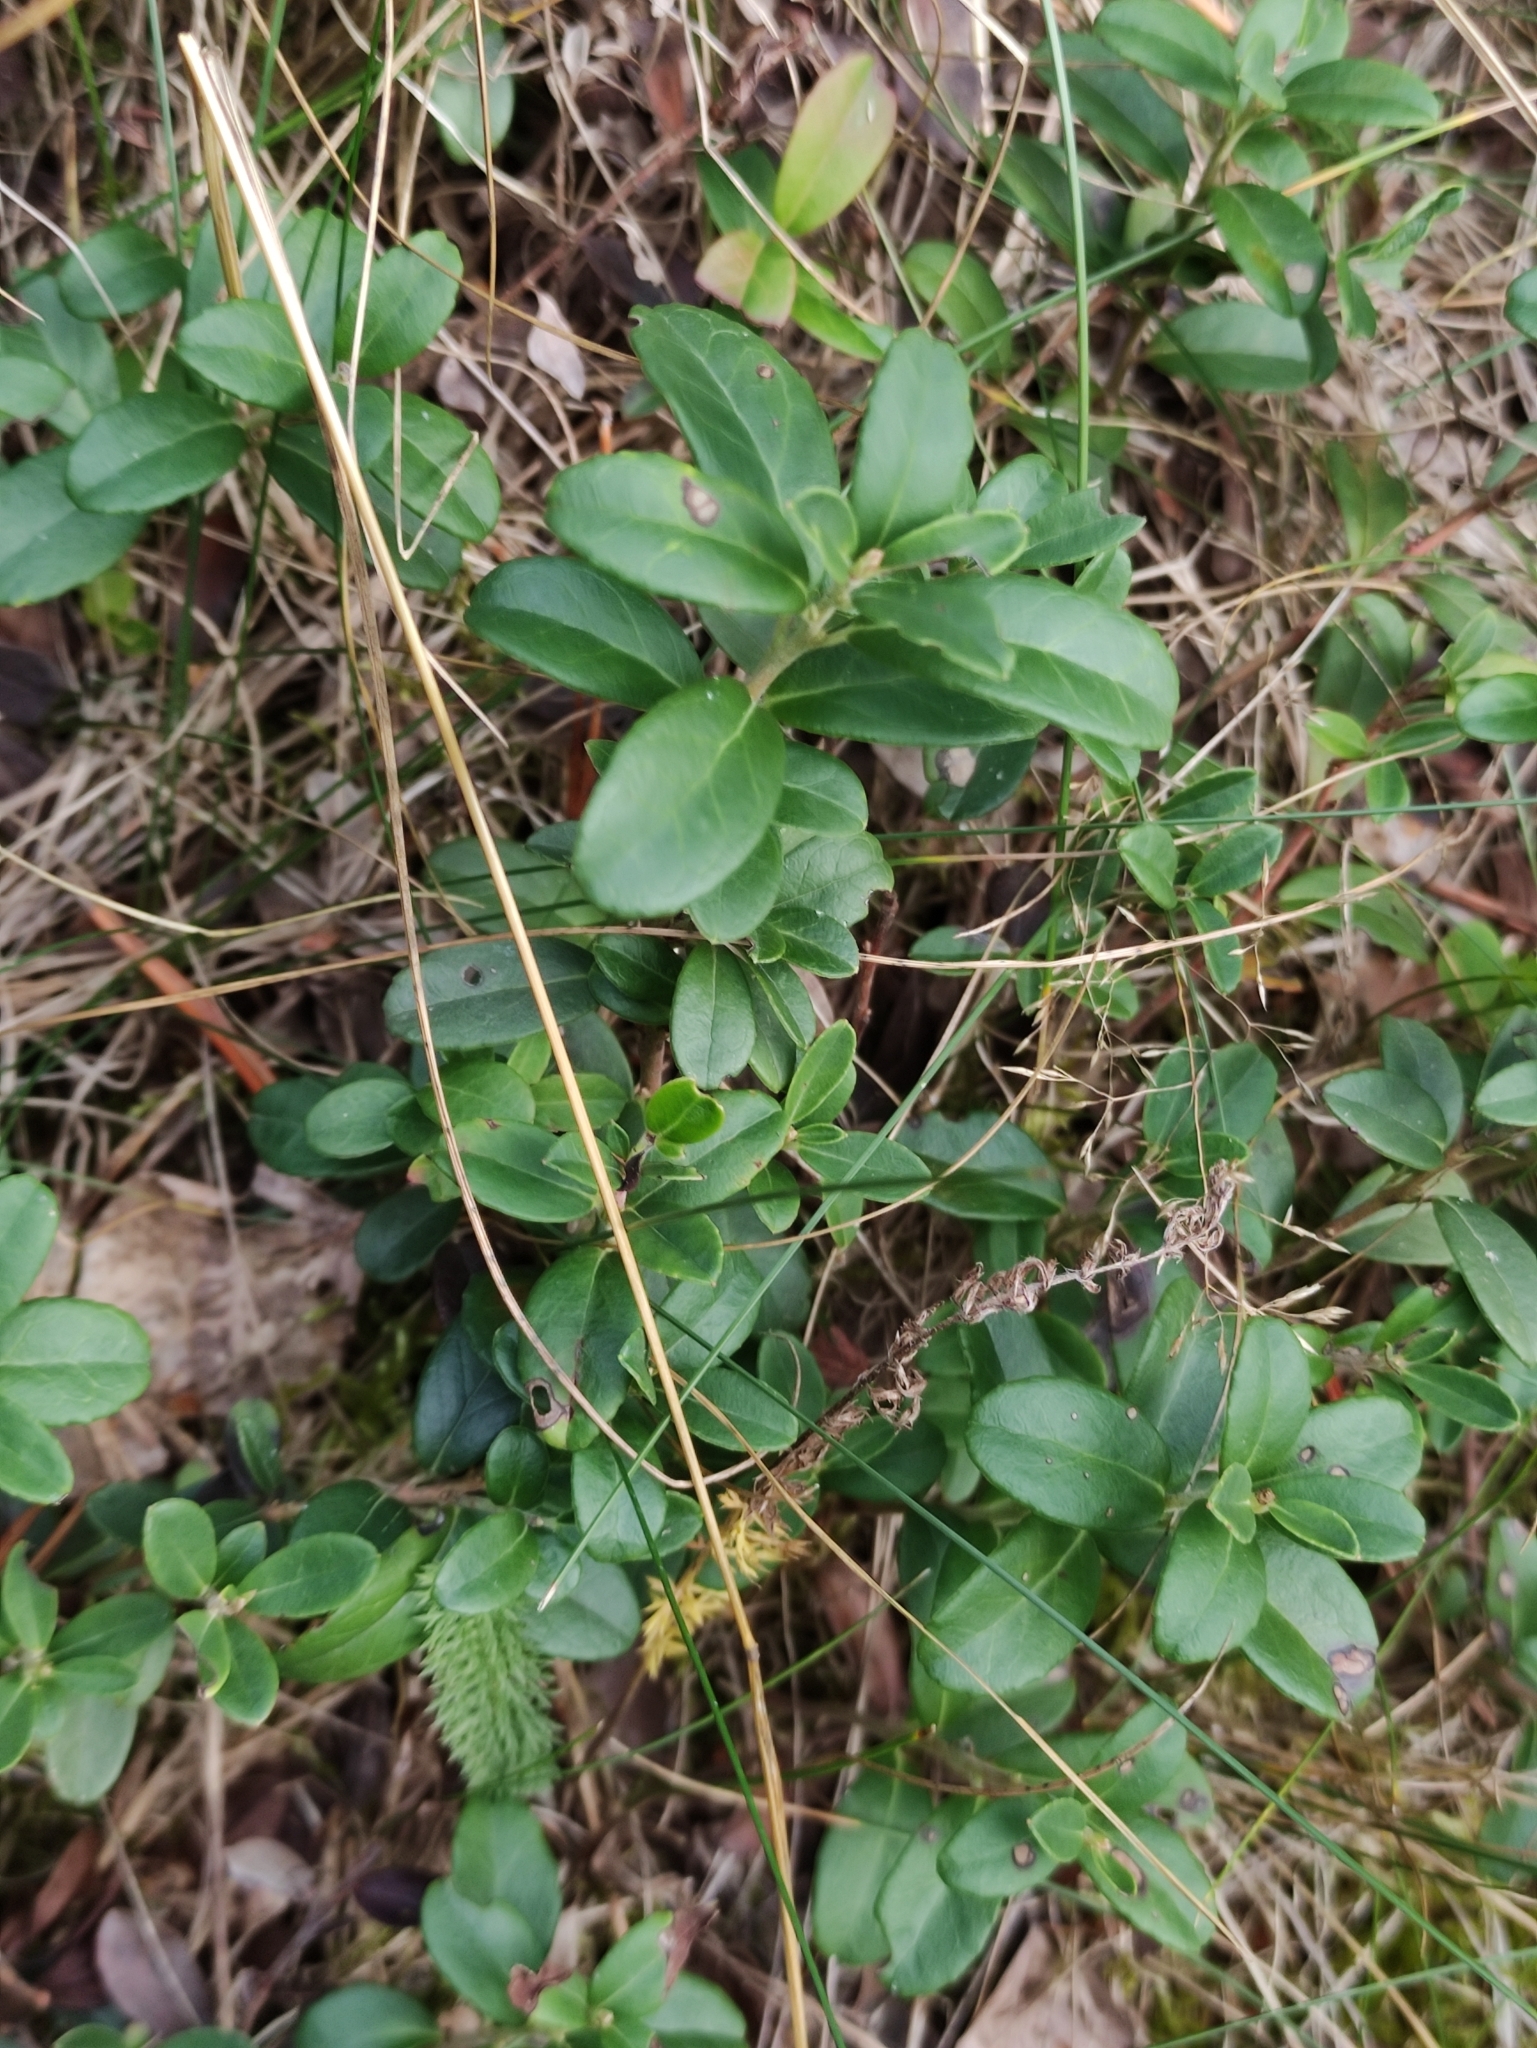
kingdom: Plantae
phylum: Tracheophyta
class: Magnoliopsida
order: Ericales
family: Ericaceae
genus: Vaccinium
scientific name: Vaccinium vitis-idaea
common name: Cowberry
